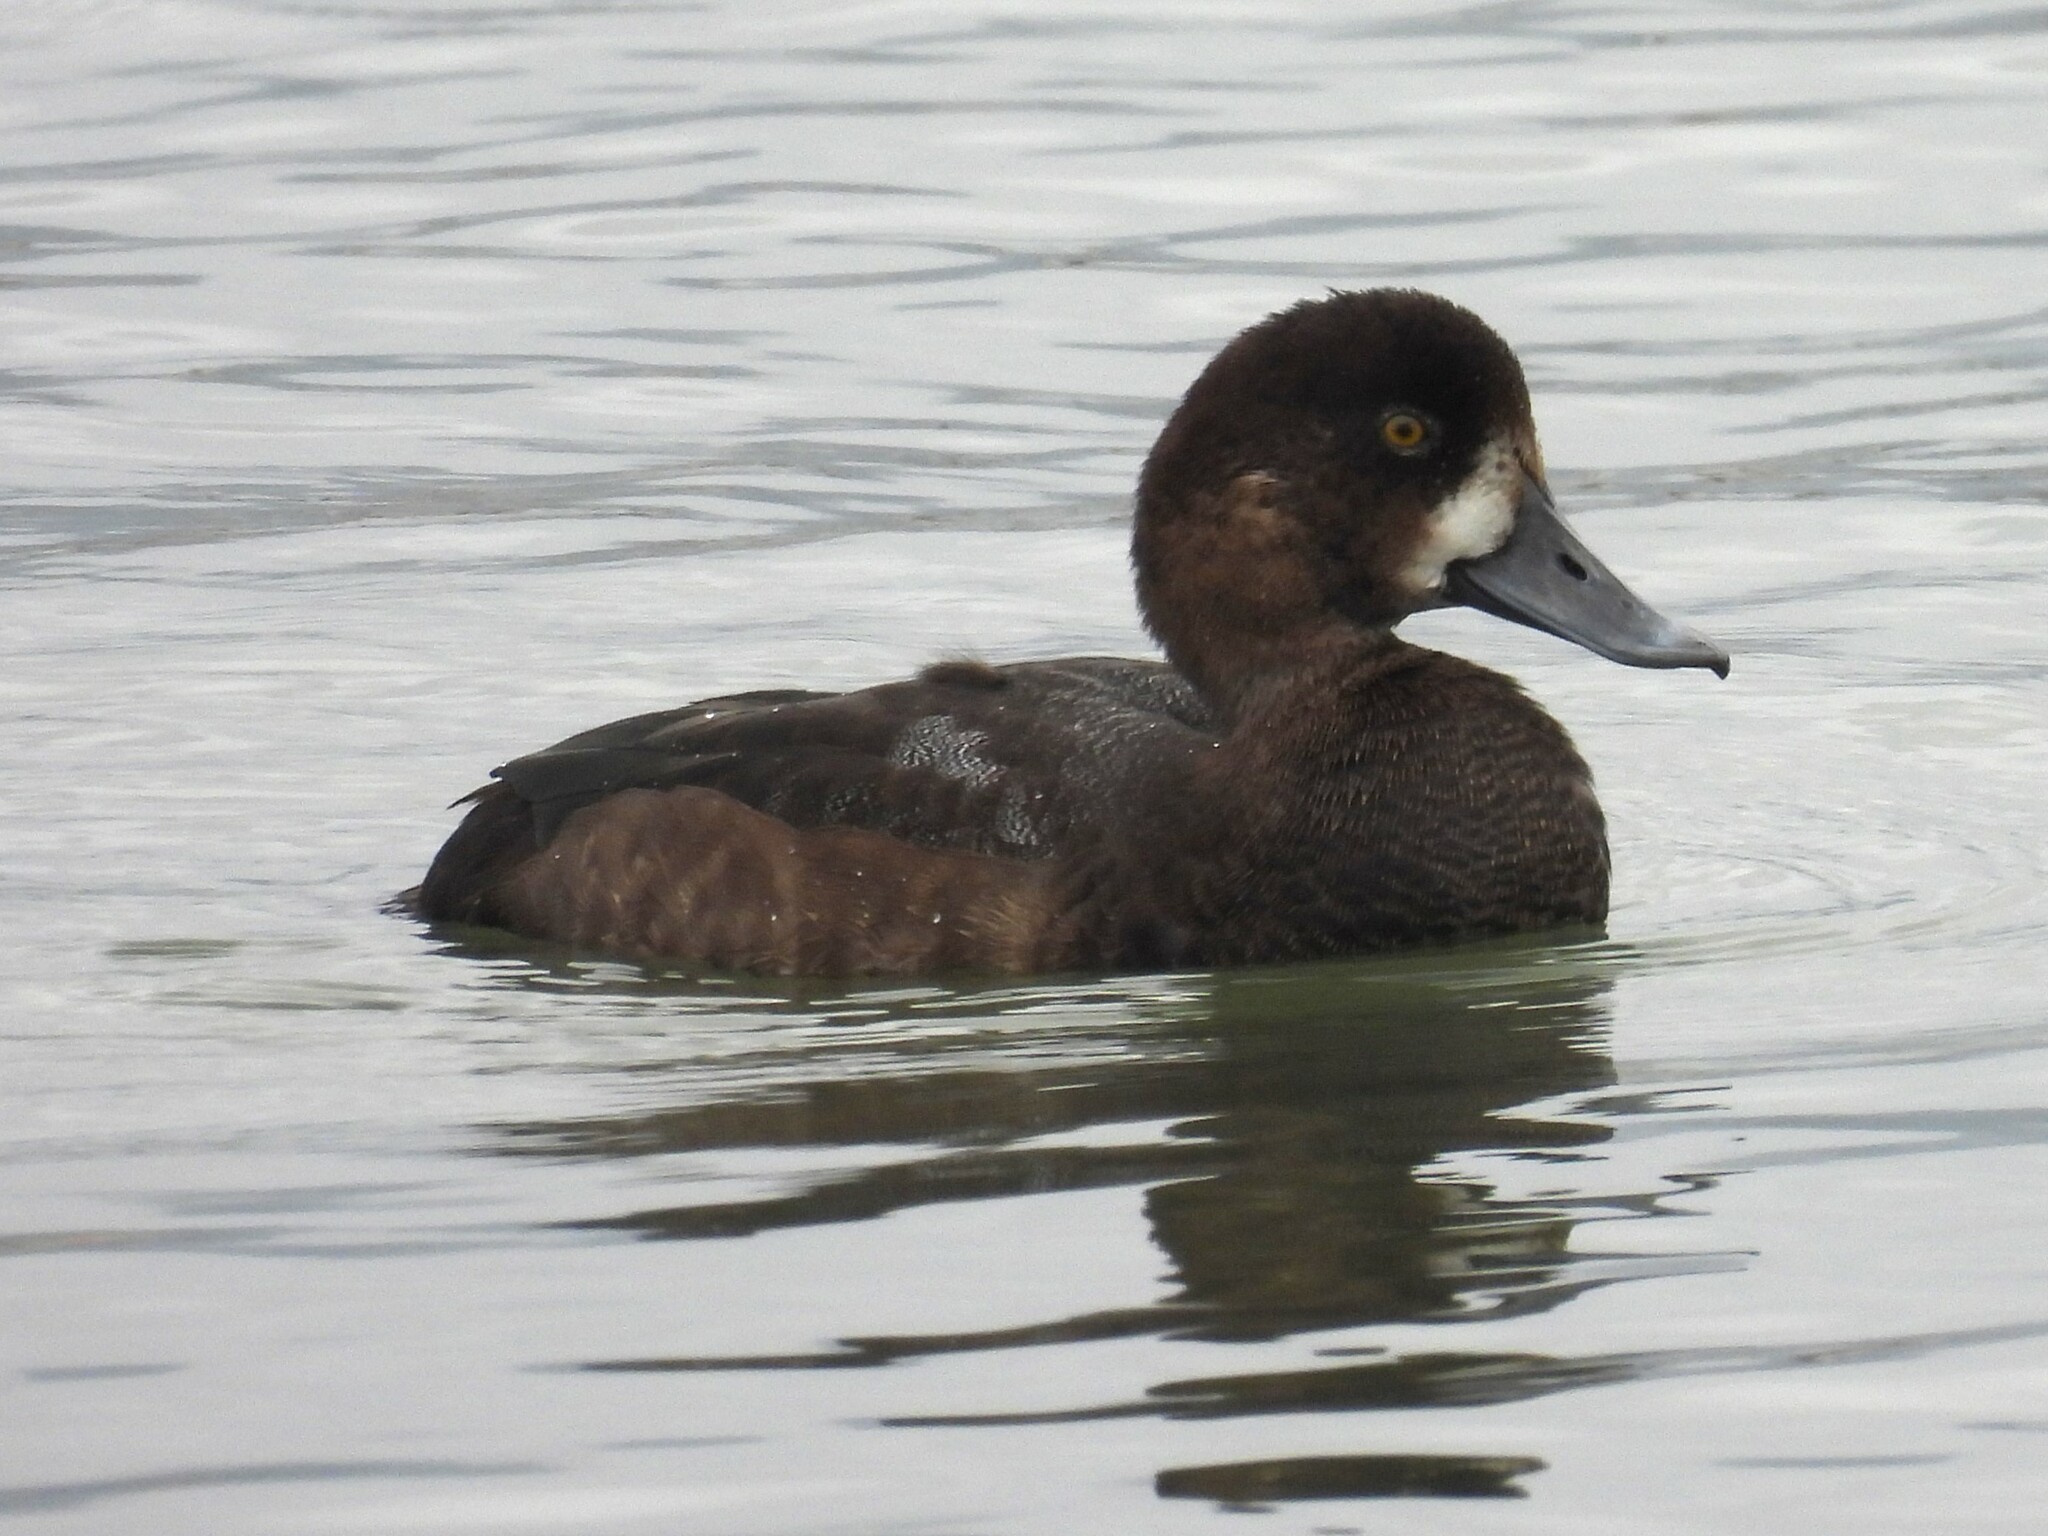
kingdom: Animalia
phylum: Chordata
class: Aves
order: Anseriformes
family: Anatidae
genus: Aythya
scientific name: Aythya marila
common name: Greater scaup
